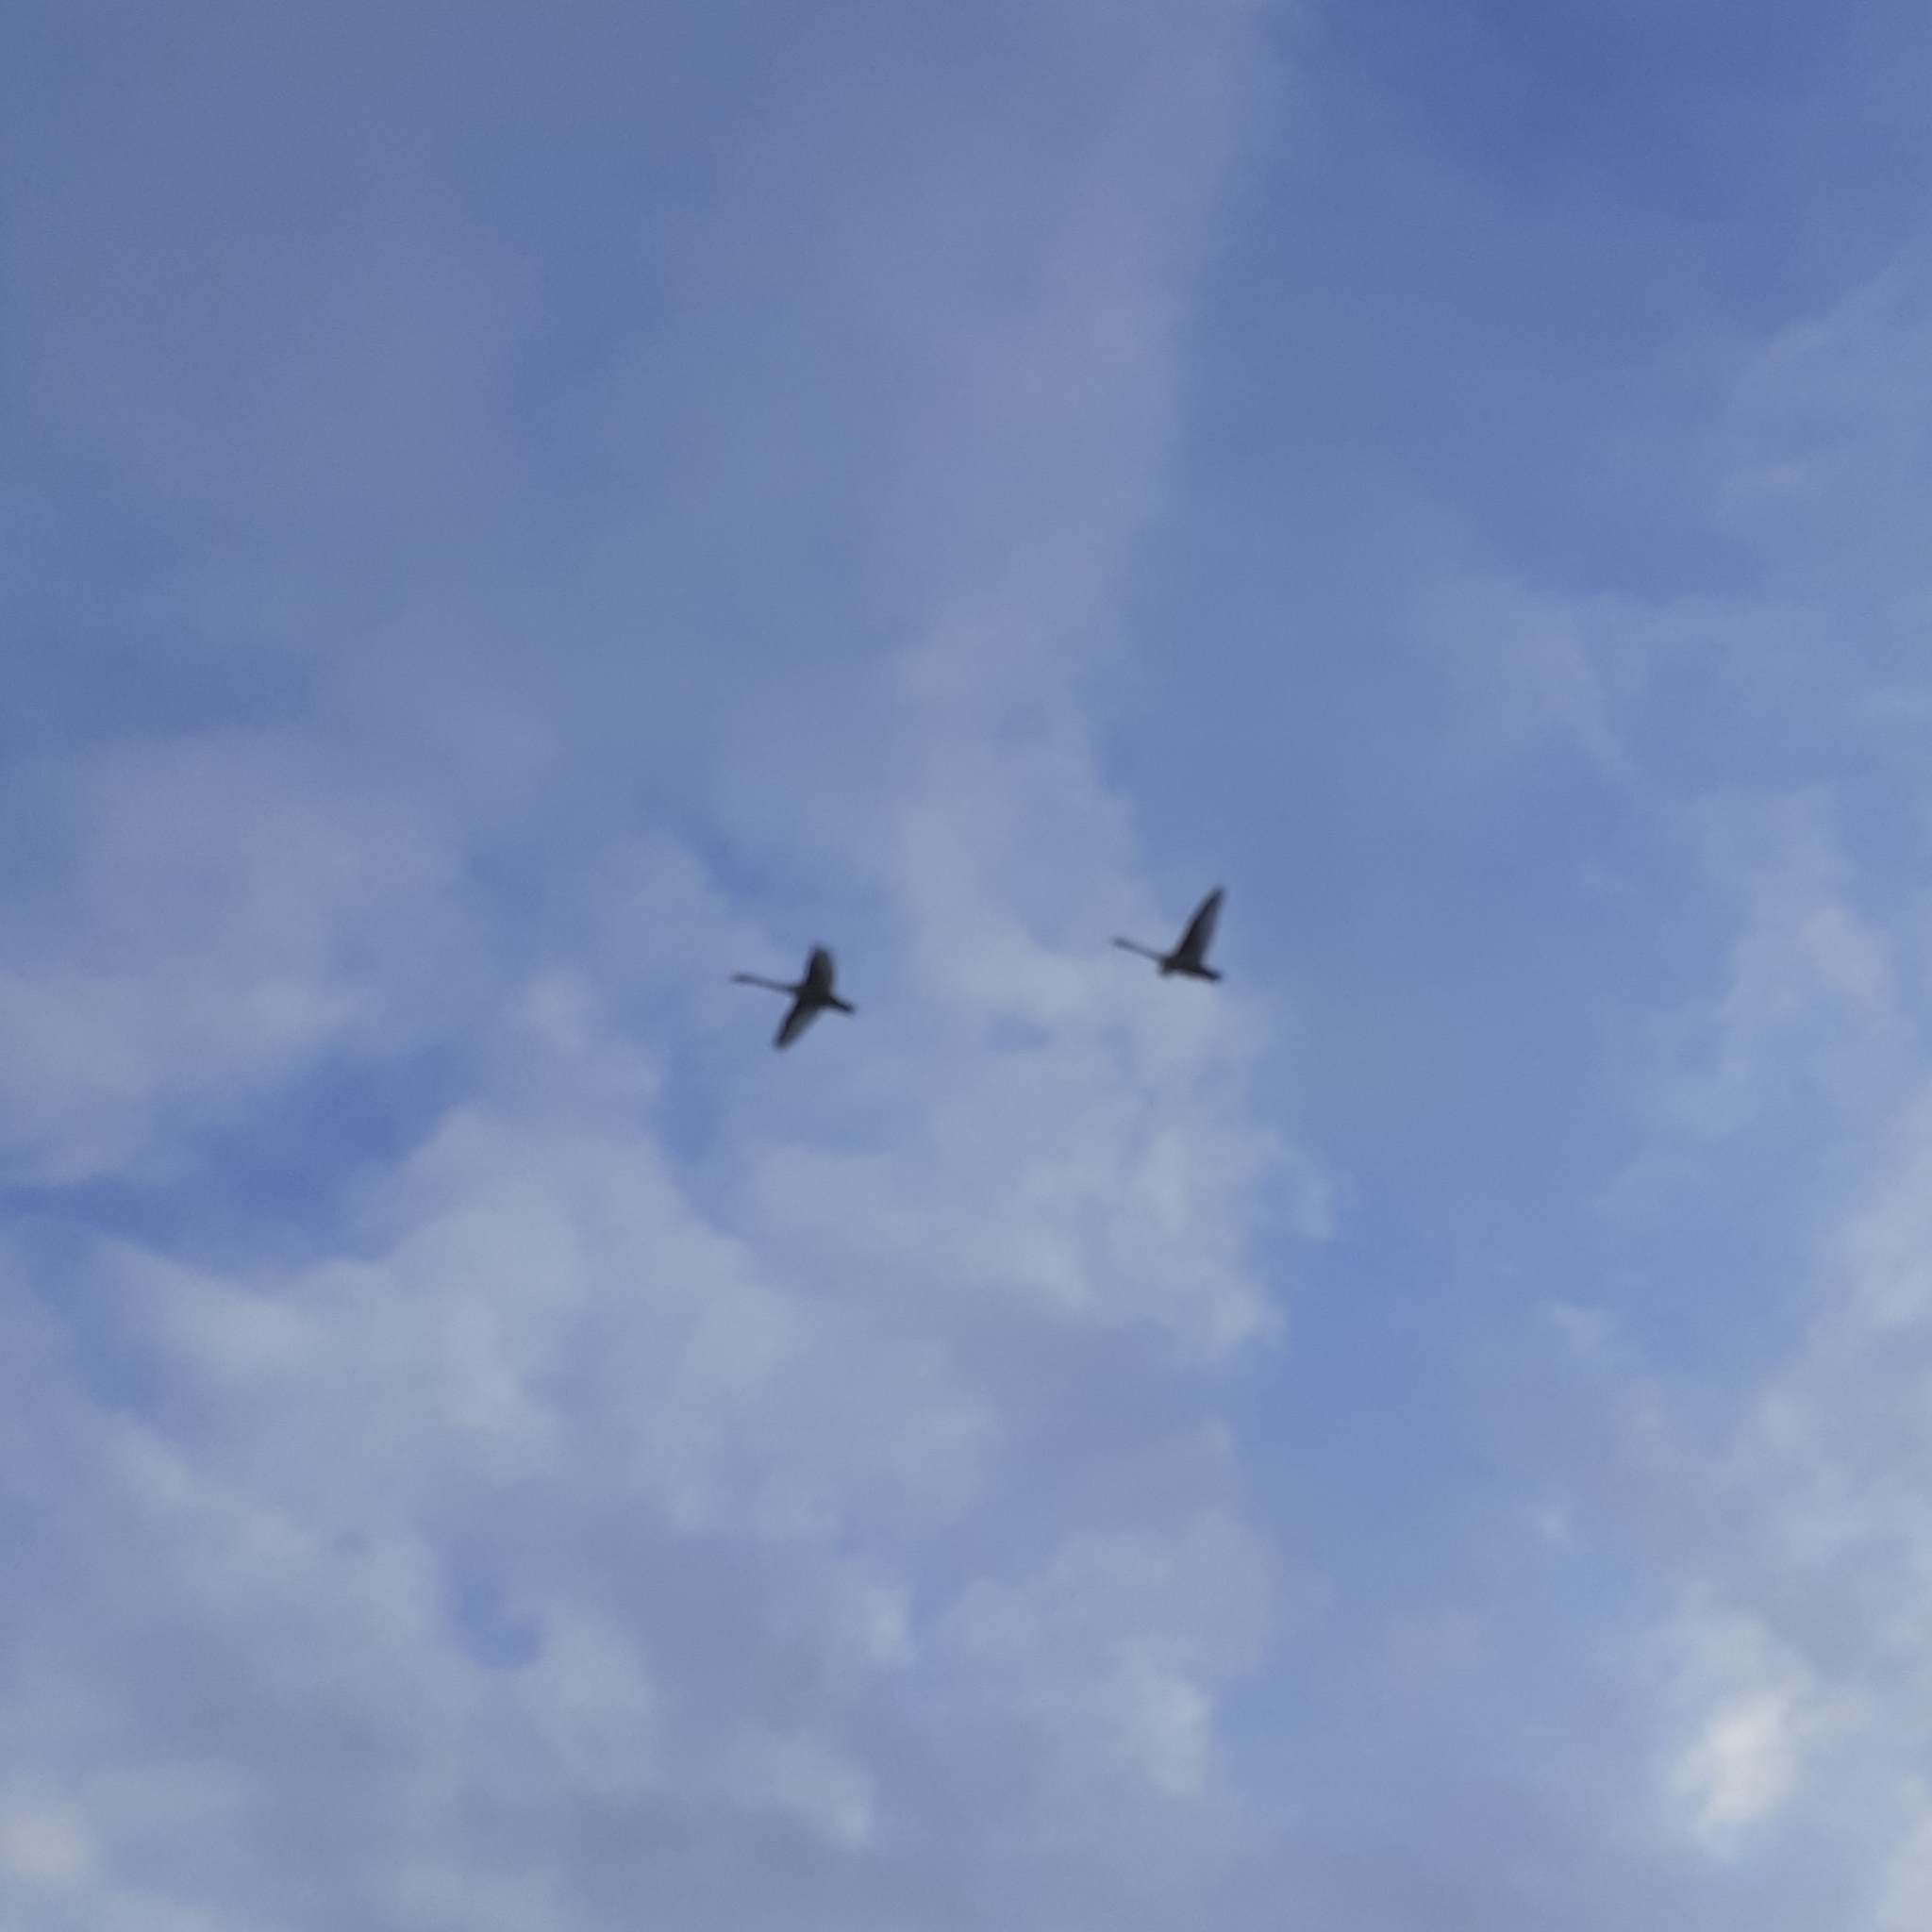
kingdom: Animalia
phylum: Chordata
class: Aves
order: Anseriformes
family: Anatidae
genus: Cygnus
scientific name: Cygnus olor
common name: Mute swan
